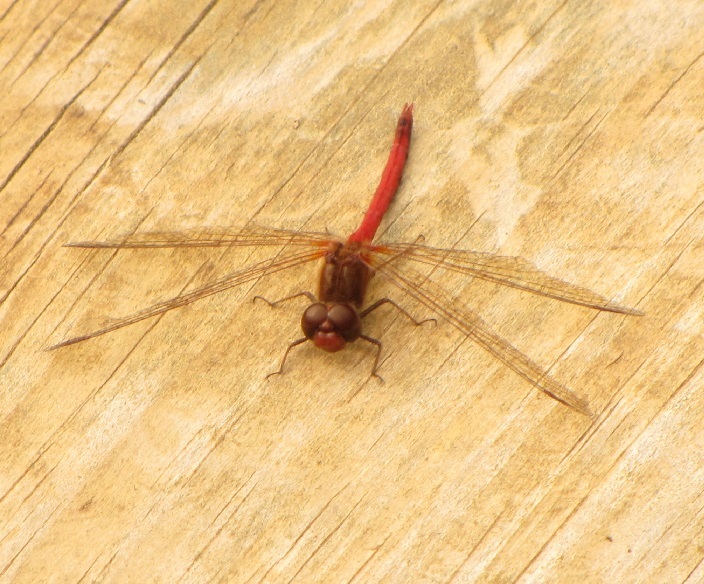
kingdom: Animalia
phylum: Arthropoda
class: Insecta
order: Odonata
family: Libellulidae
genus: Sympetrum
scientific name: Sympetrum vicinum
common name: Autumn meadowhawk
